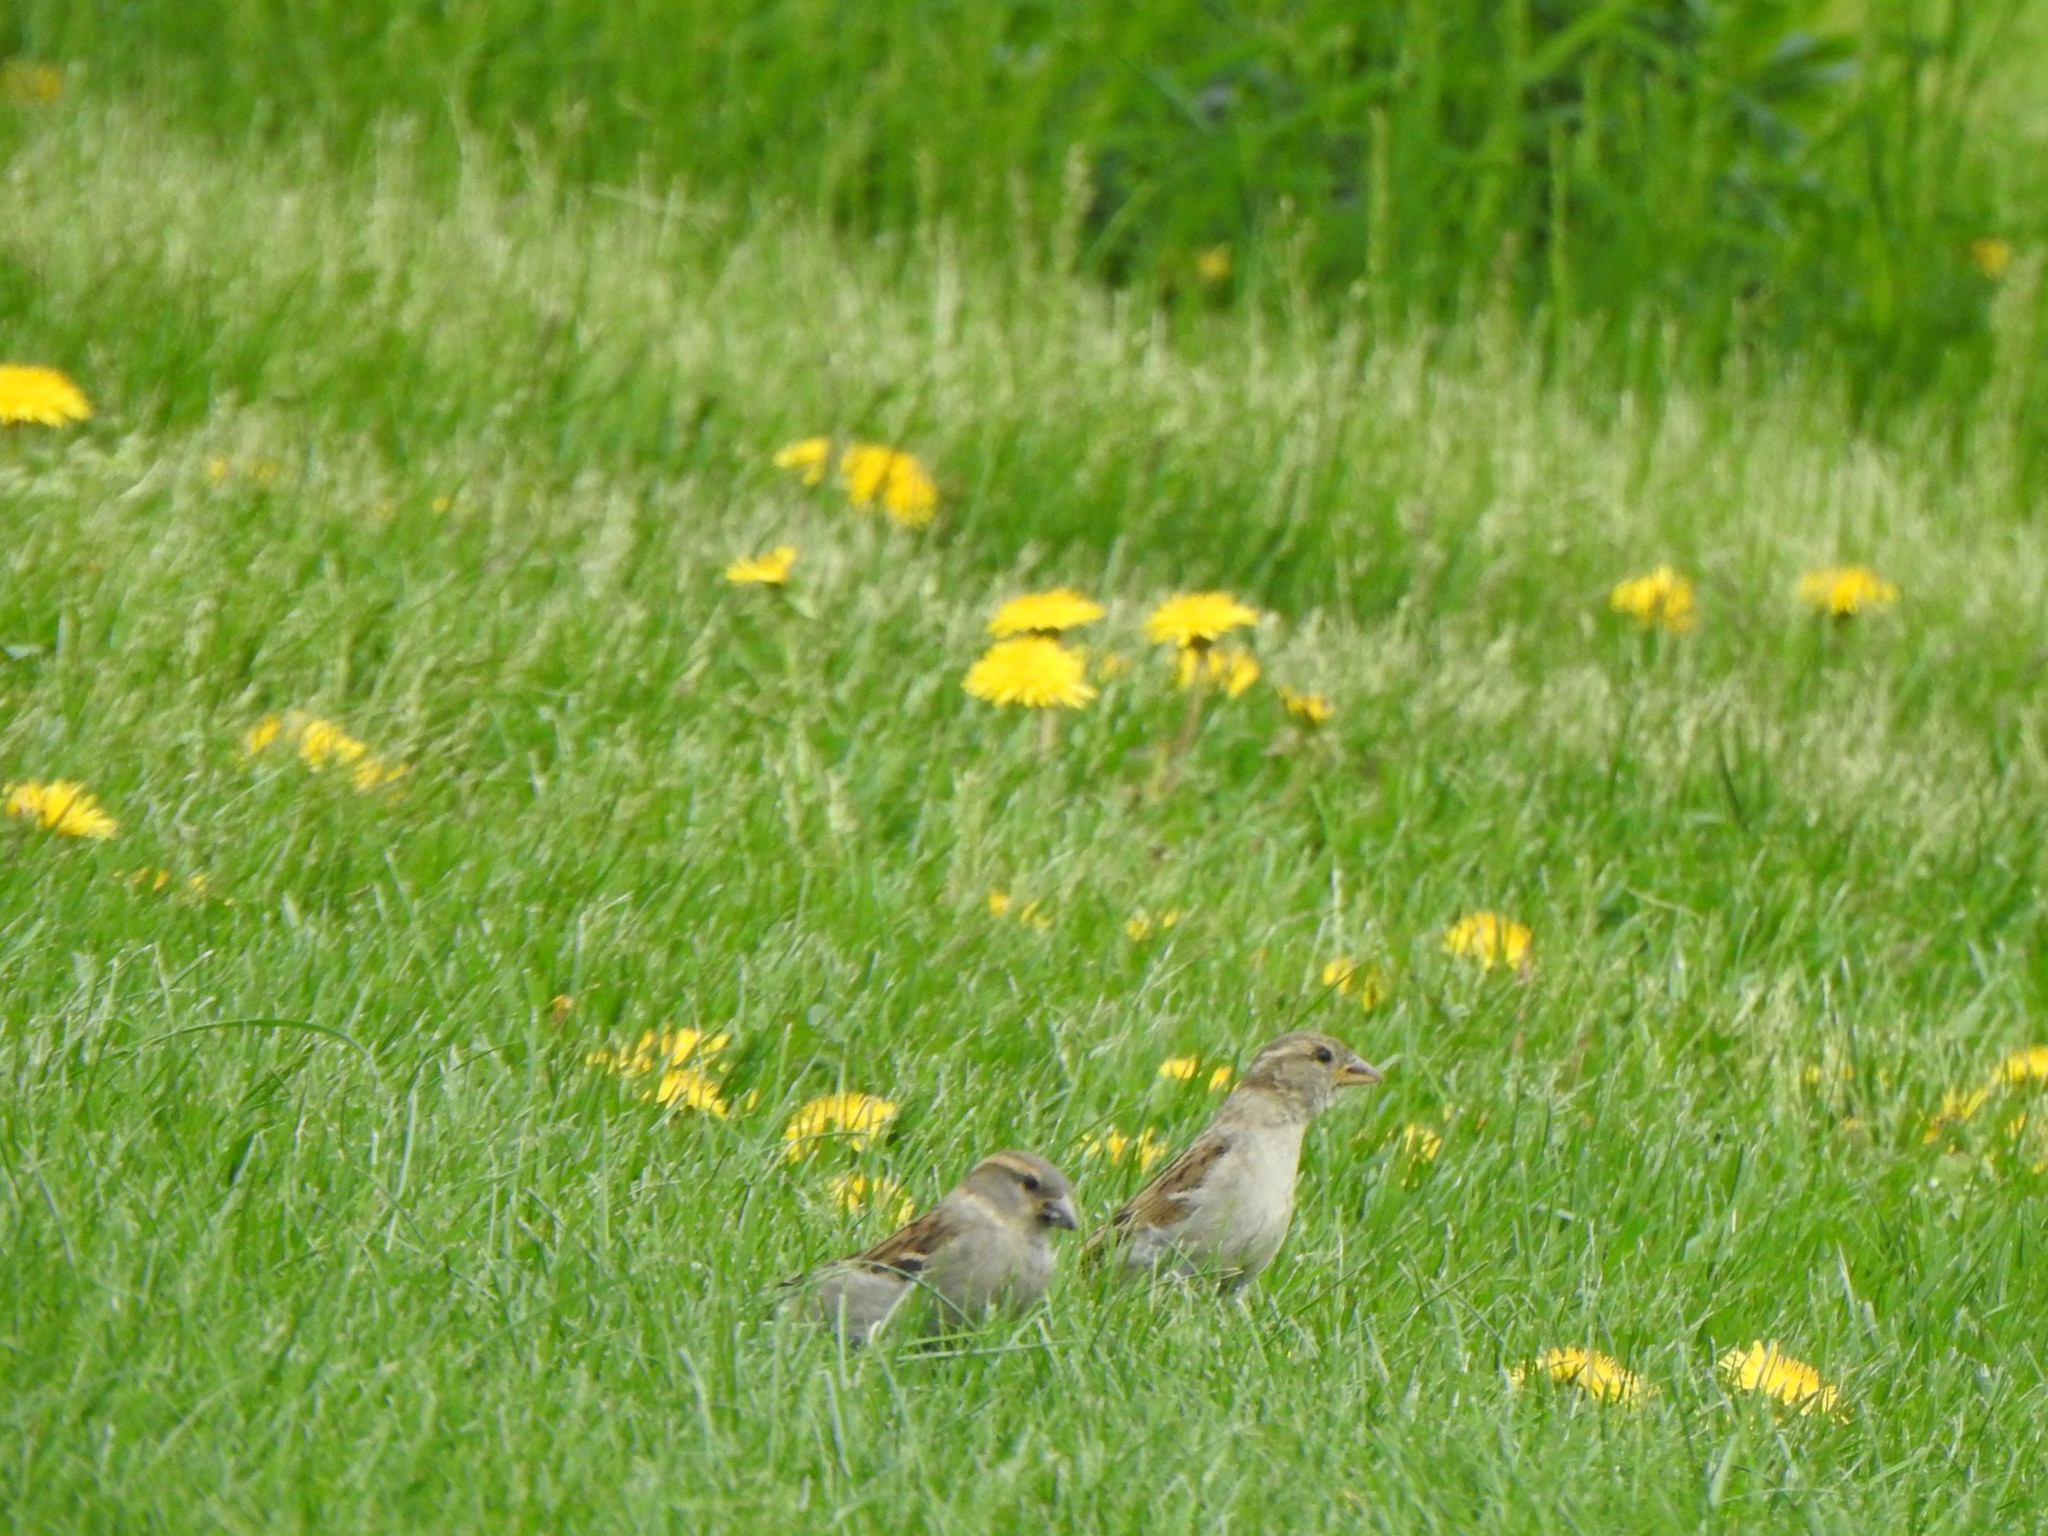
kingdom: Animalia
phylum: Chordata
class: Aves
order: Passeriformes
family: Passeridae
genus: Passer
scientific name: Passer domesticus
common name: House sparrow
